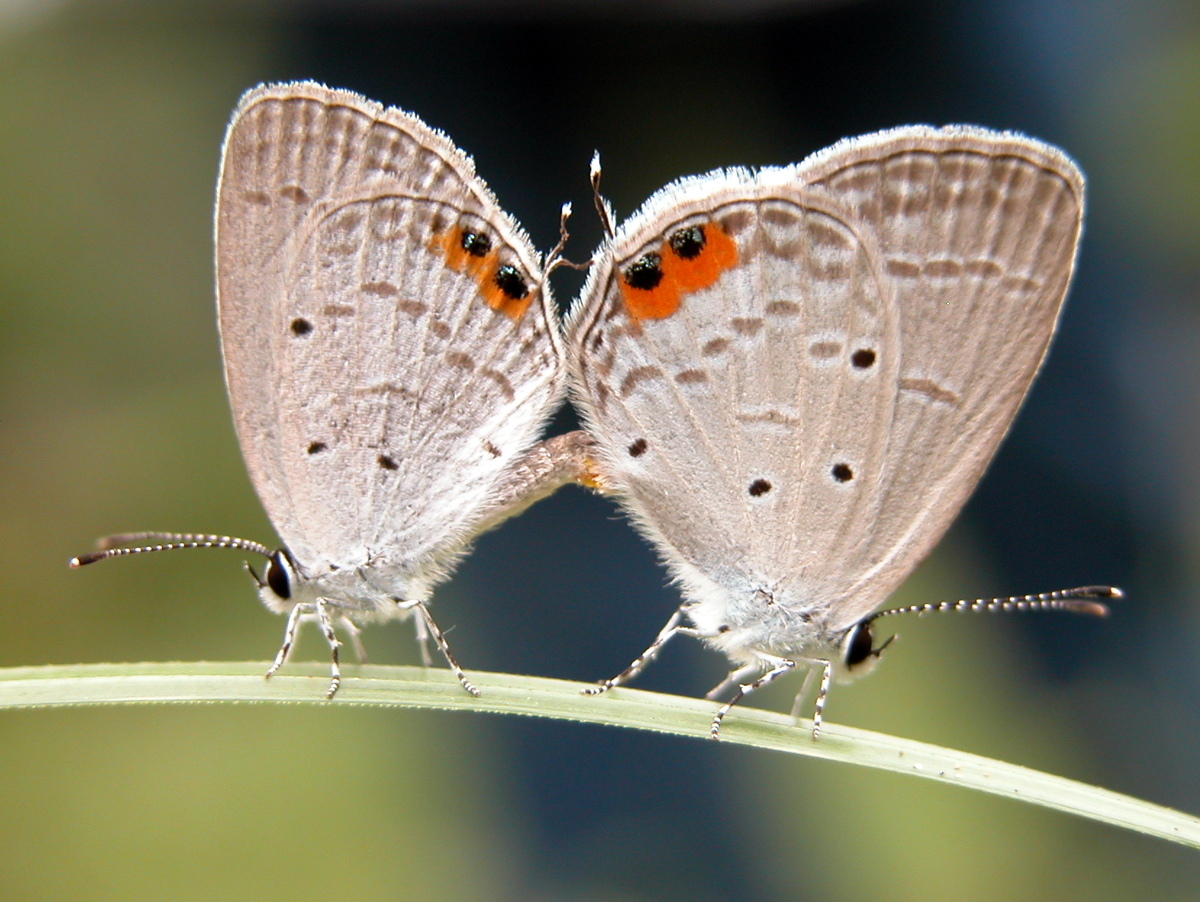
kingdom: Animalia
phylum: Arthropoda
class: Insecta
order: Lepidoptera
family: Lycaenidae
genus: Everes
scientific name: Everes lacturnus
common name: Orange-tipped pea-blue
